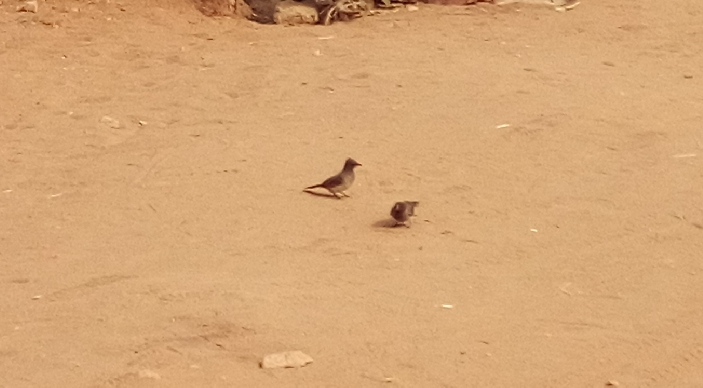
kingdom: Animalia
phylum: Chordata
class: Aves
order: Passeriformes
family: Pycnonotidae
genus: Pycnonotus
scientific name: Pycnonotus barbatus
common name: Common bulbul
